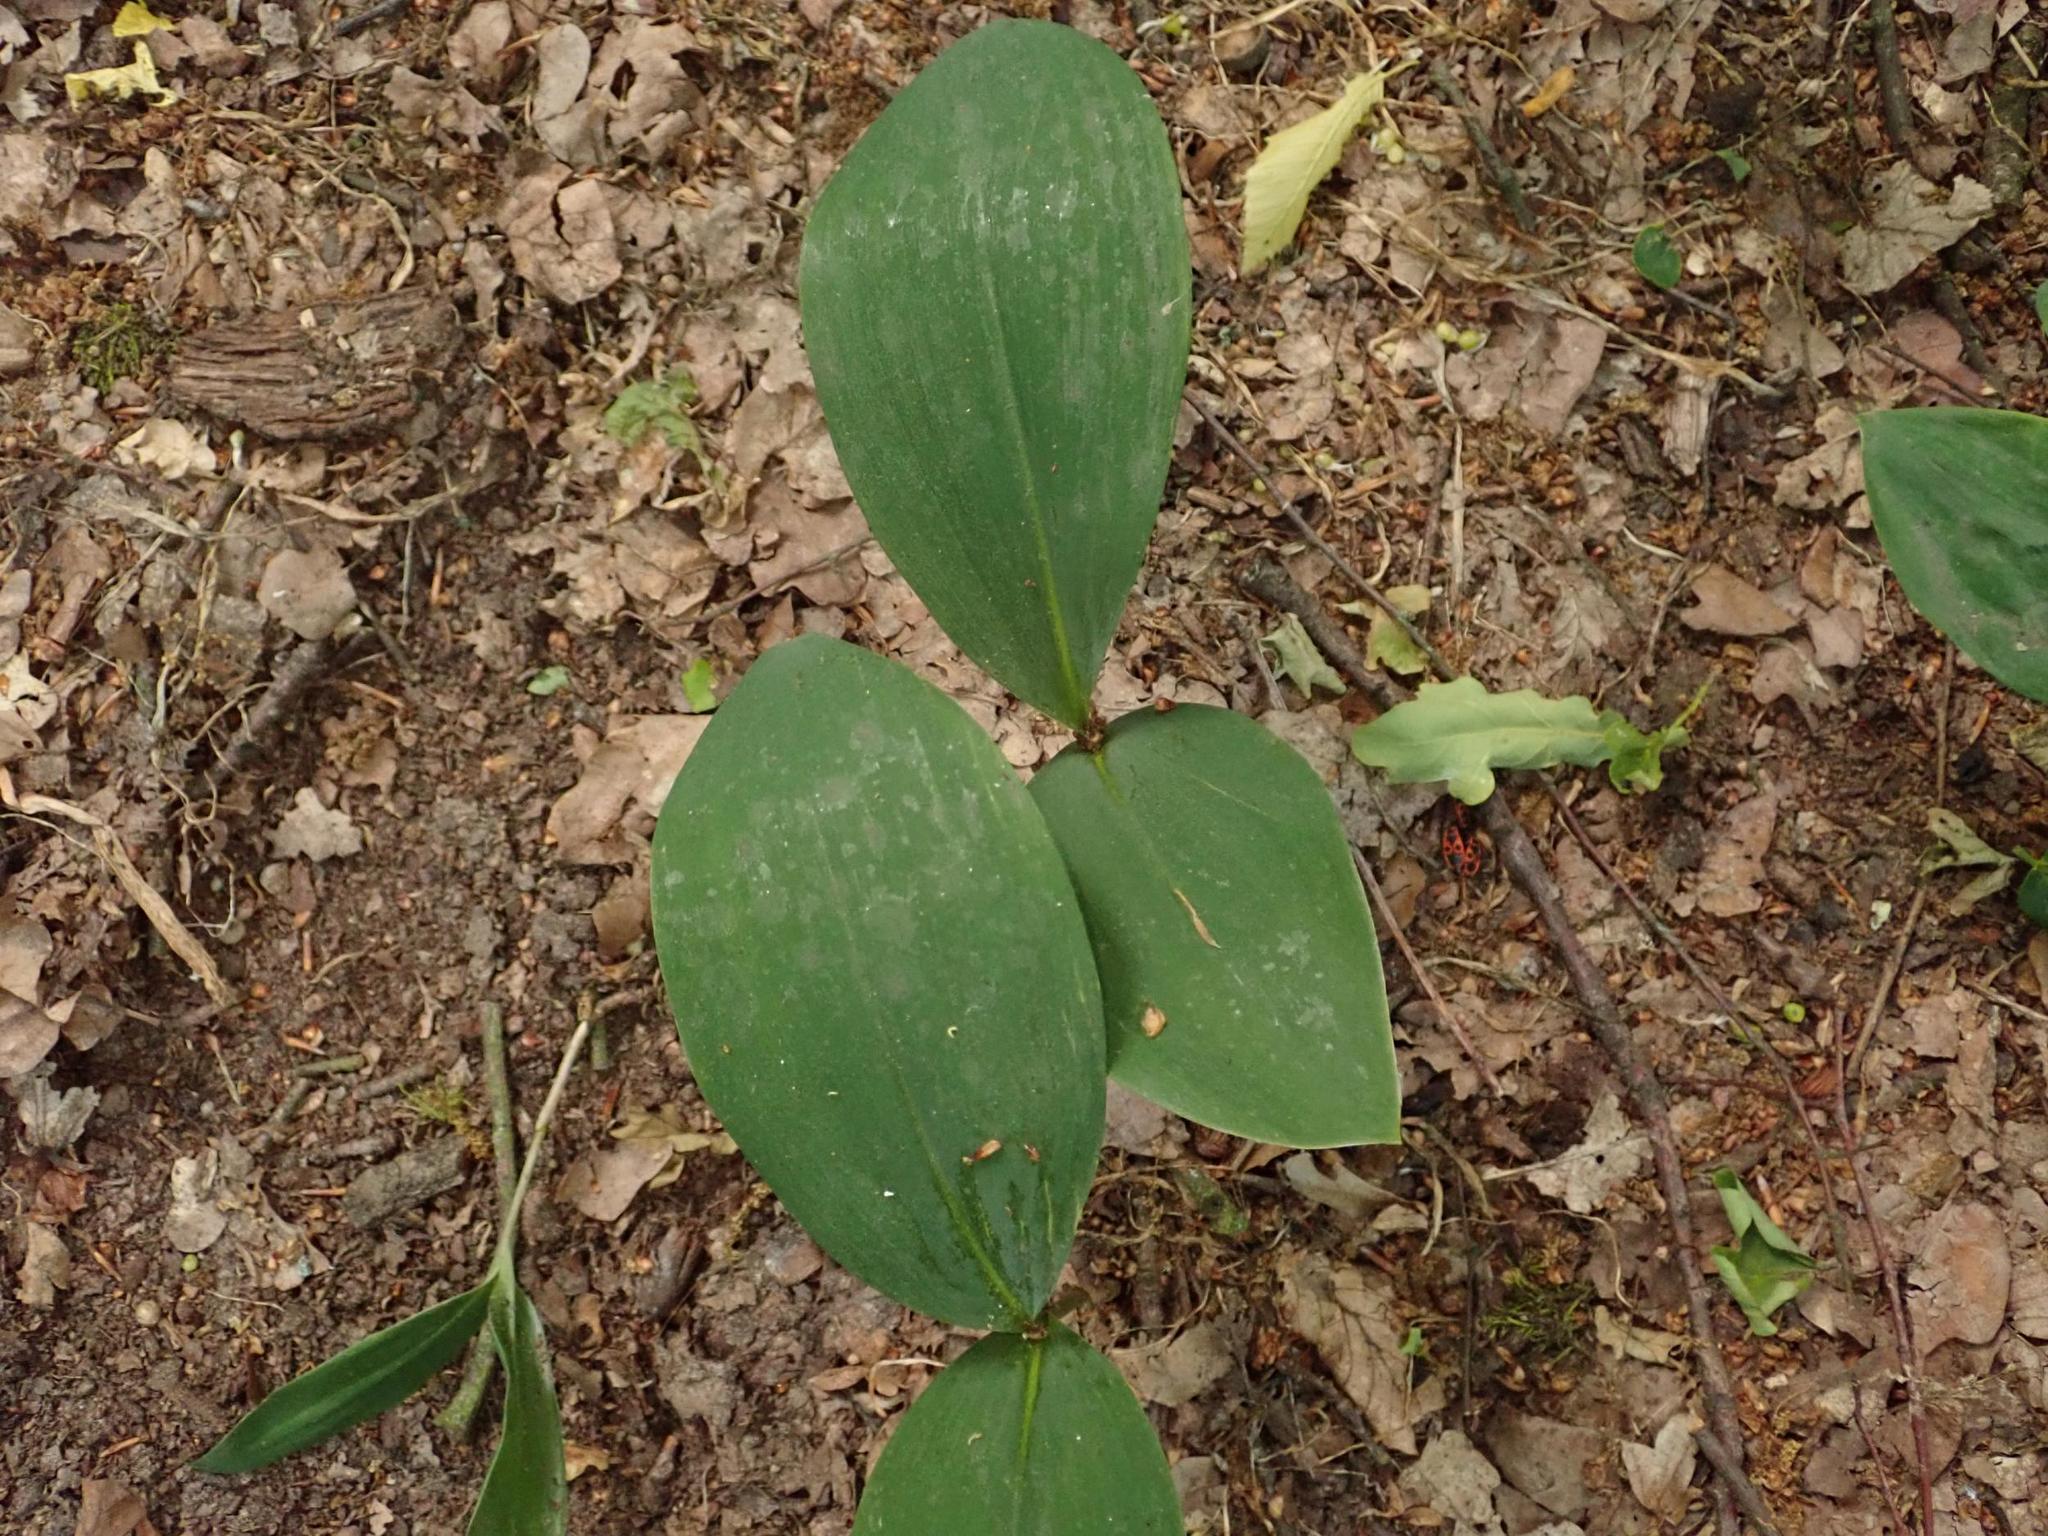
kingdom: Plantae
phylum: Tracheophyta
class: Liliopsida
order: Asparagales
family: Asparagaceae
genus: Convallaria
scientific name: Convallaria majalis
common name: Lily-of-the-valley
